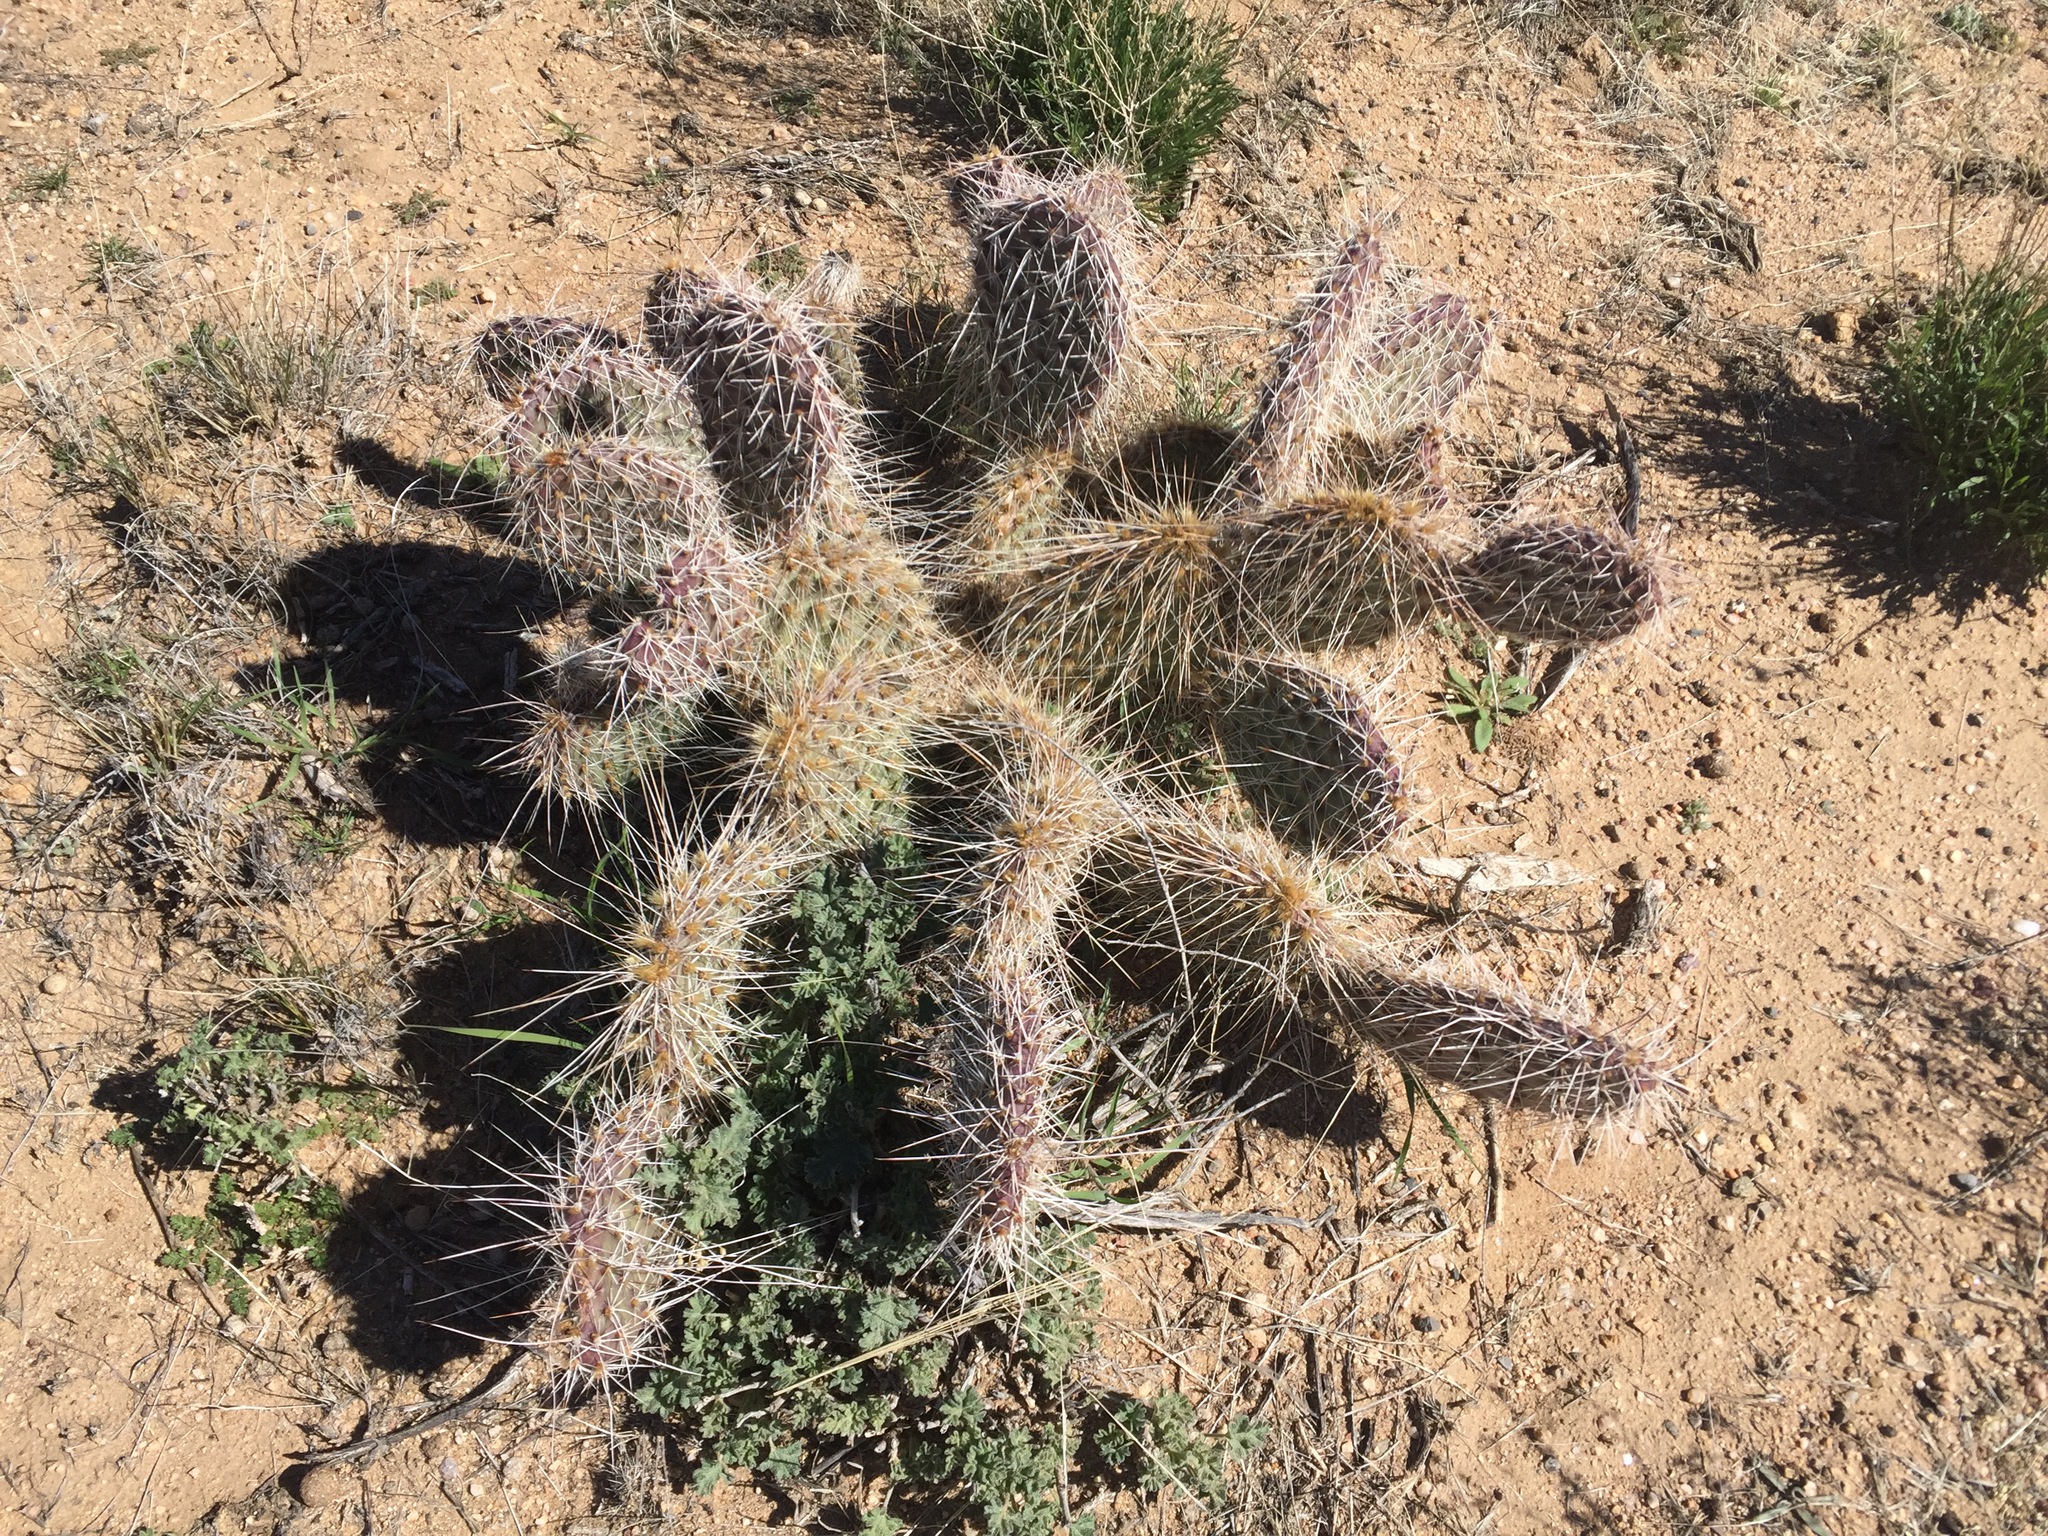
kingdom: Plantae
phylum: Tracheophyta
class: Magnoliopsida
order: Caryophyllales
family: Cactaceae
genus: Opuntia
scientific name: Opuntia polyacantha
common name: Plains prickly-pear
